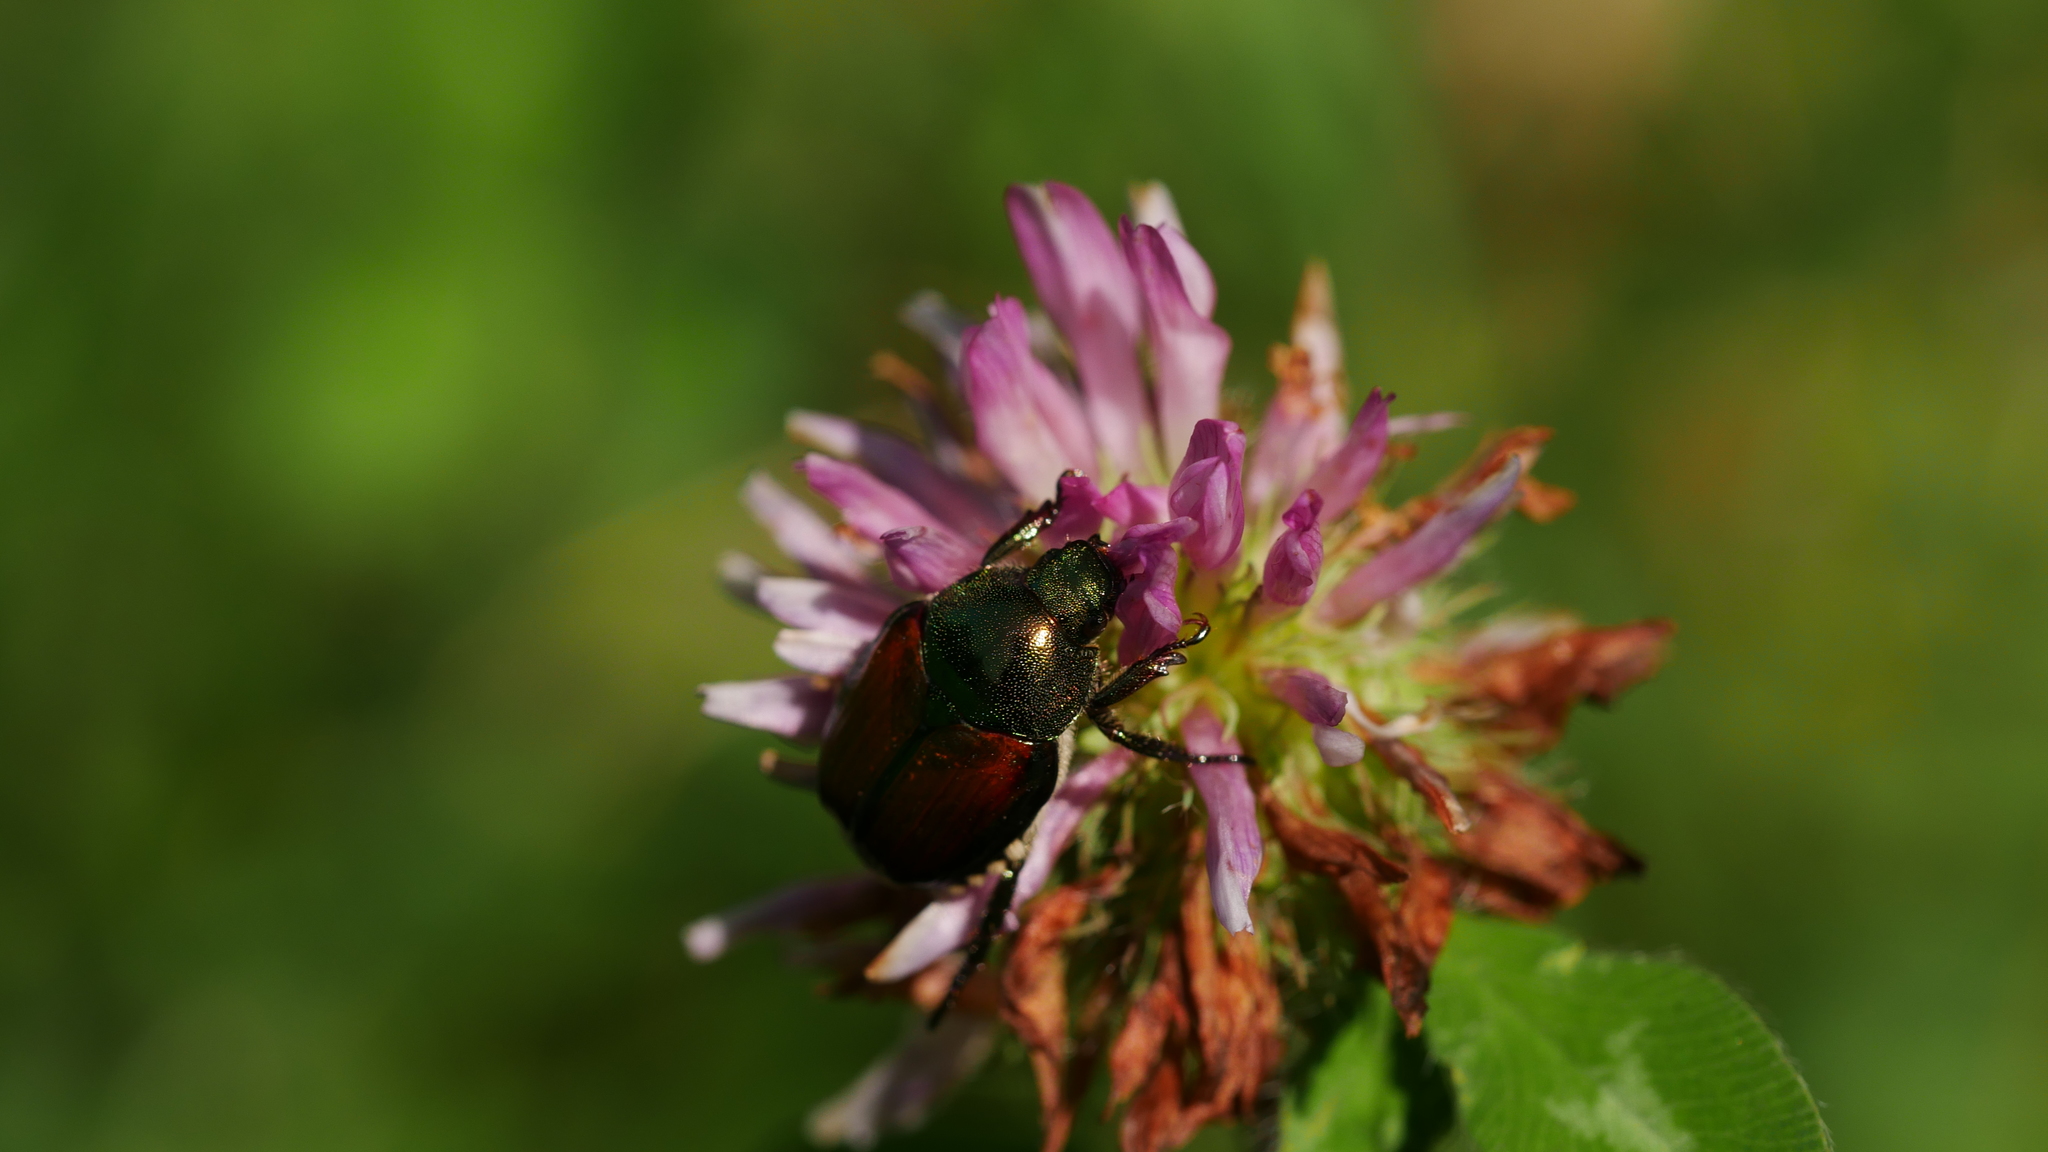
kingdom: Animalia
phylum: Arthropoda
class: Insecta
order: Coleoptera
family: Scarabaeidae
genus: Popillia
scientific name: Popillia japonica
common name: Japanese beetle
